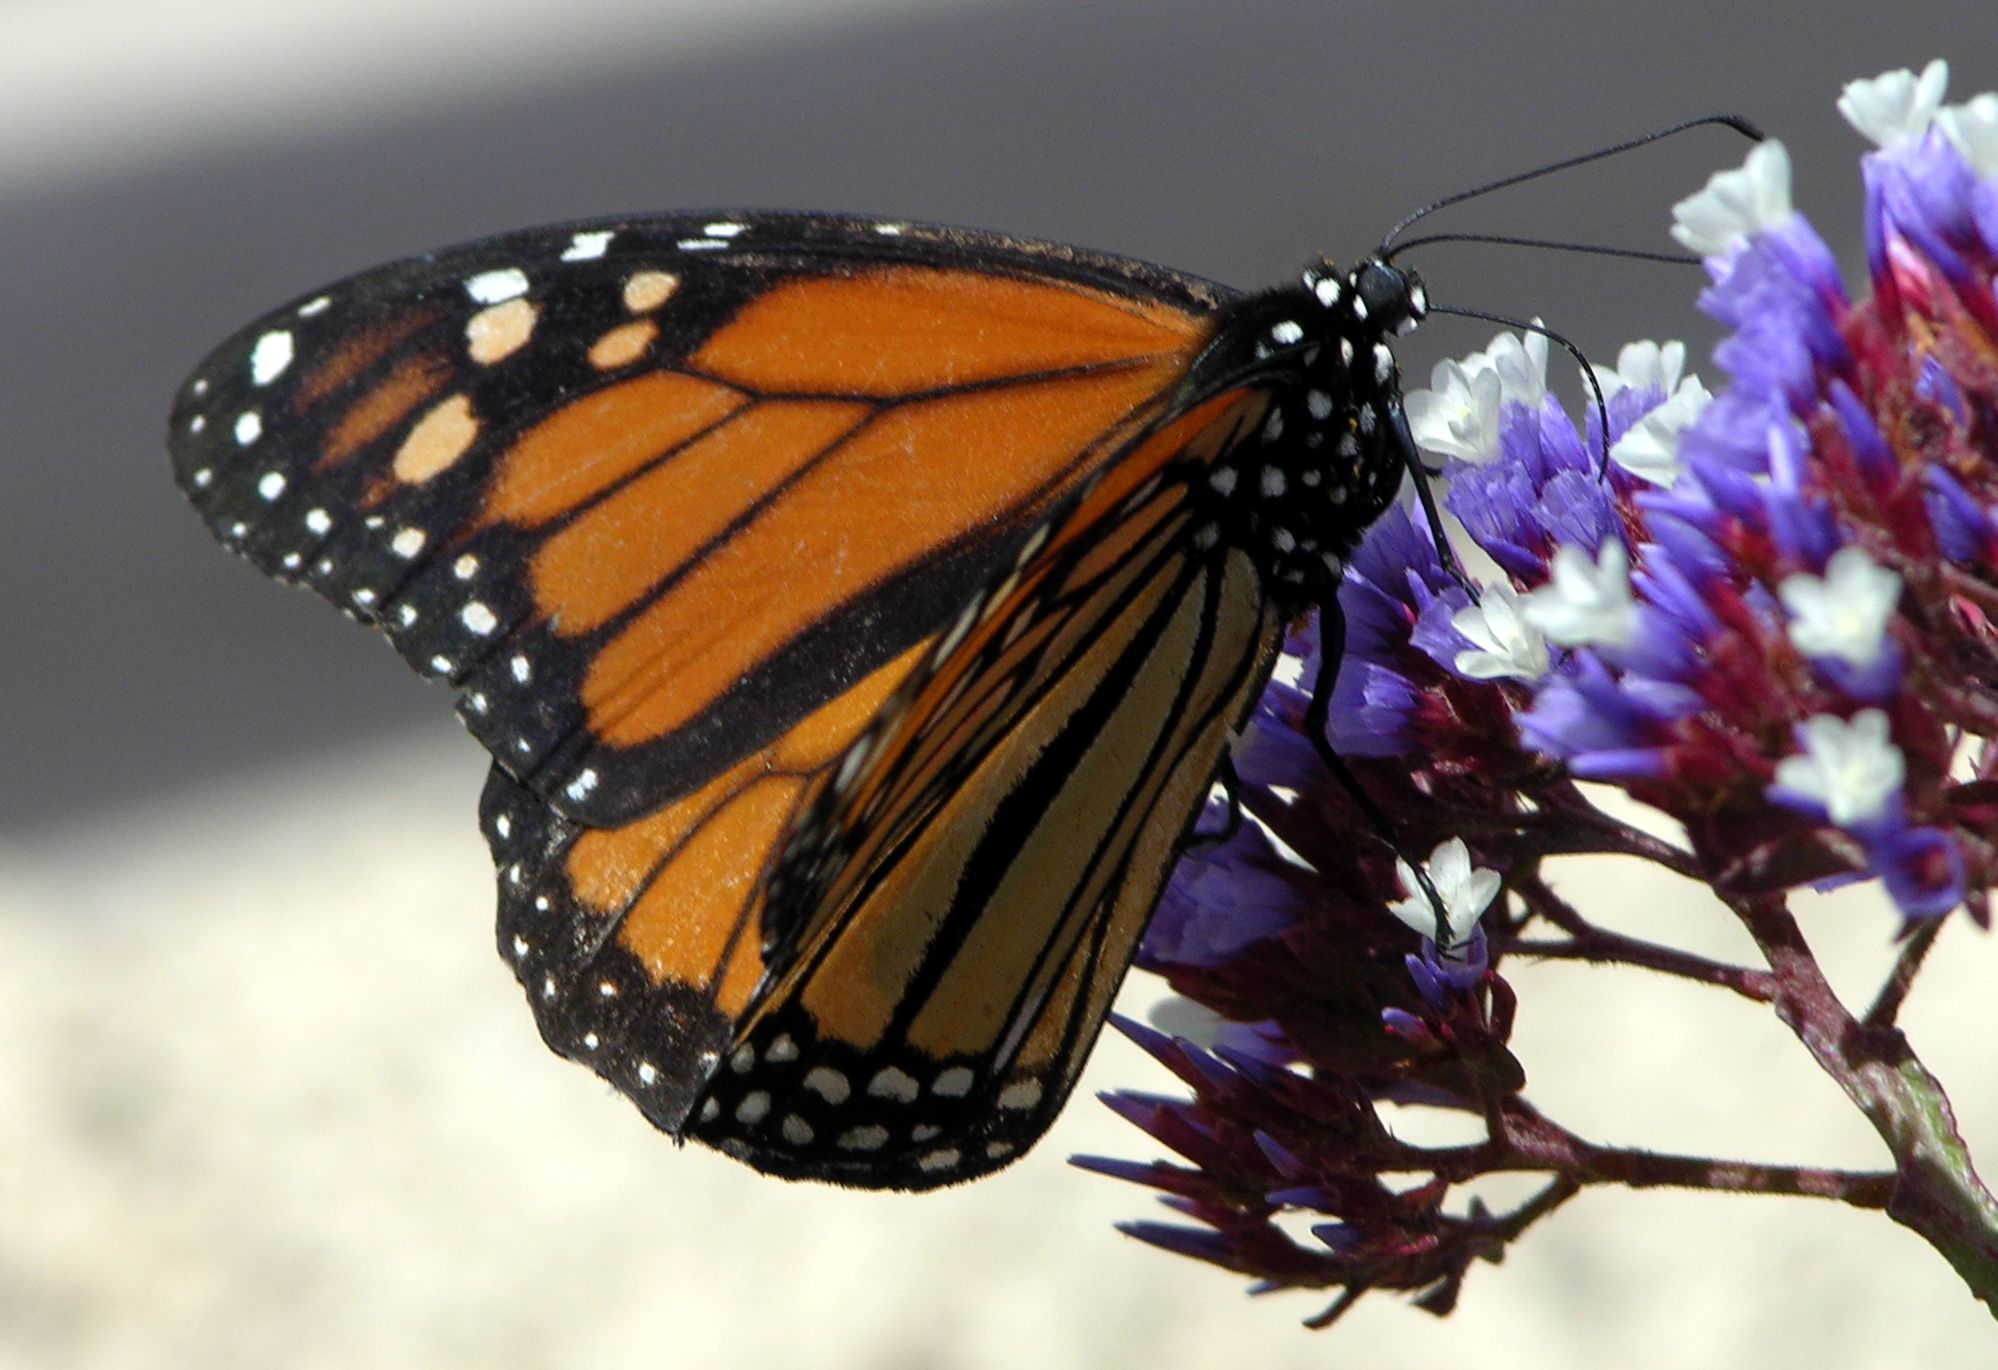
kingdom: Animalia
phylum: Arthropoda
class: Insecta
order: Lepidoptera
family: Nymphalidae
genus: Danaus
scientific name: Danaus plexippus
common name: Monarch
